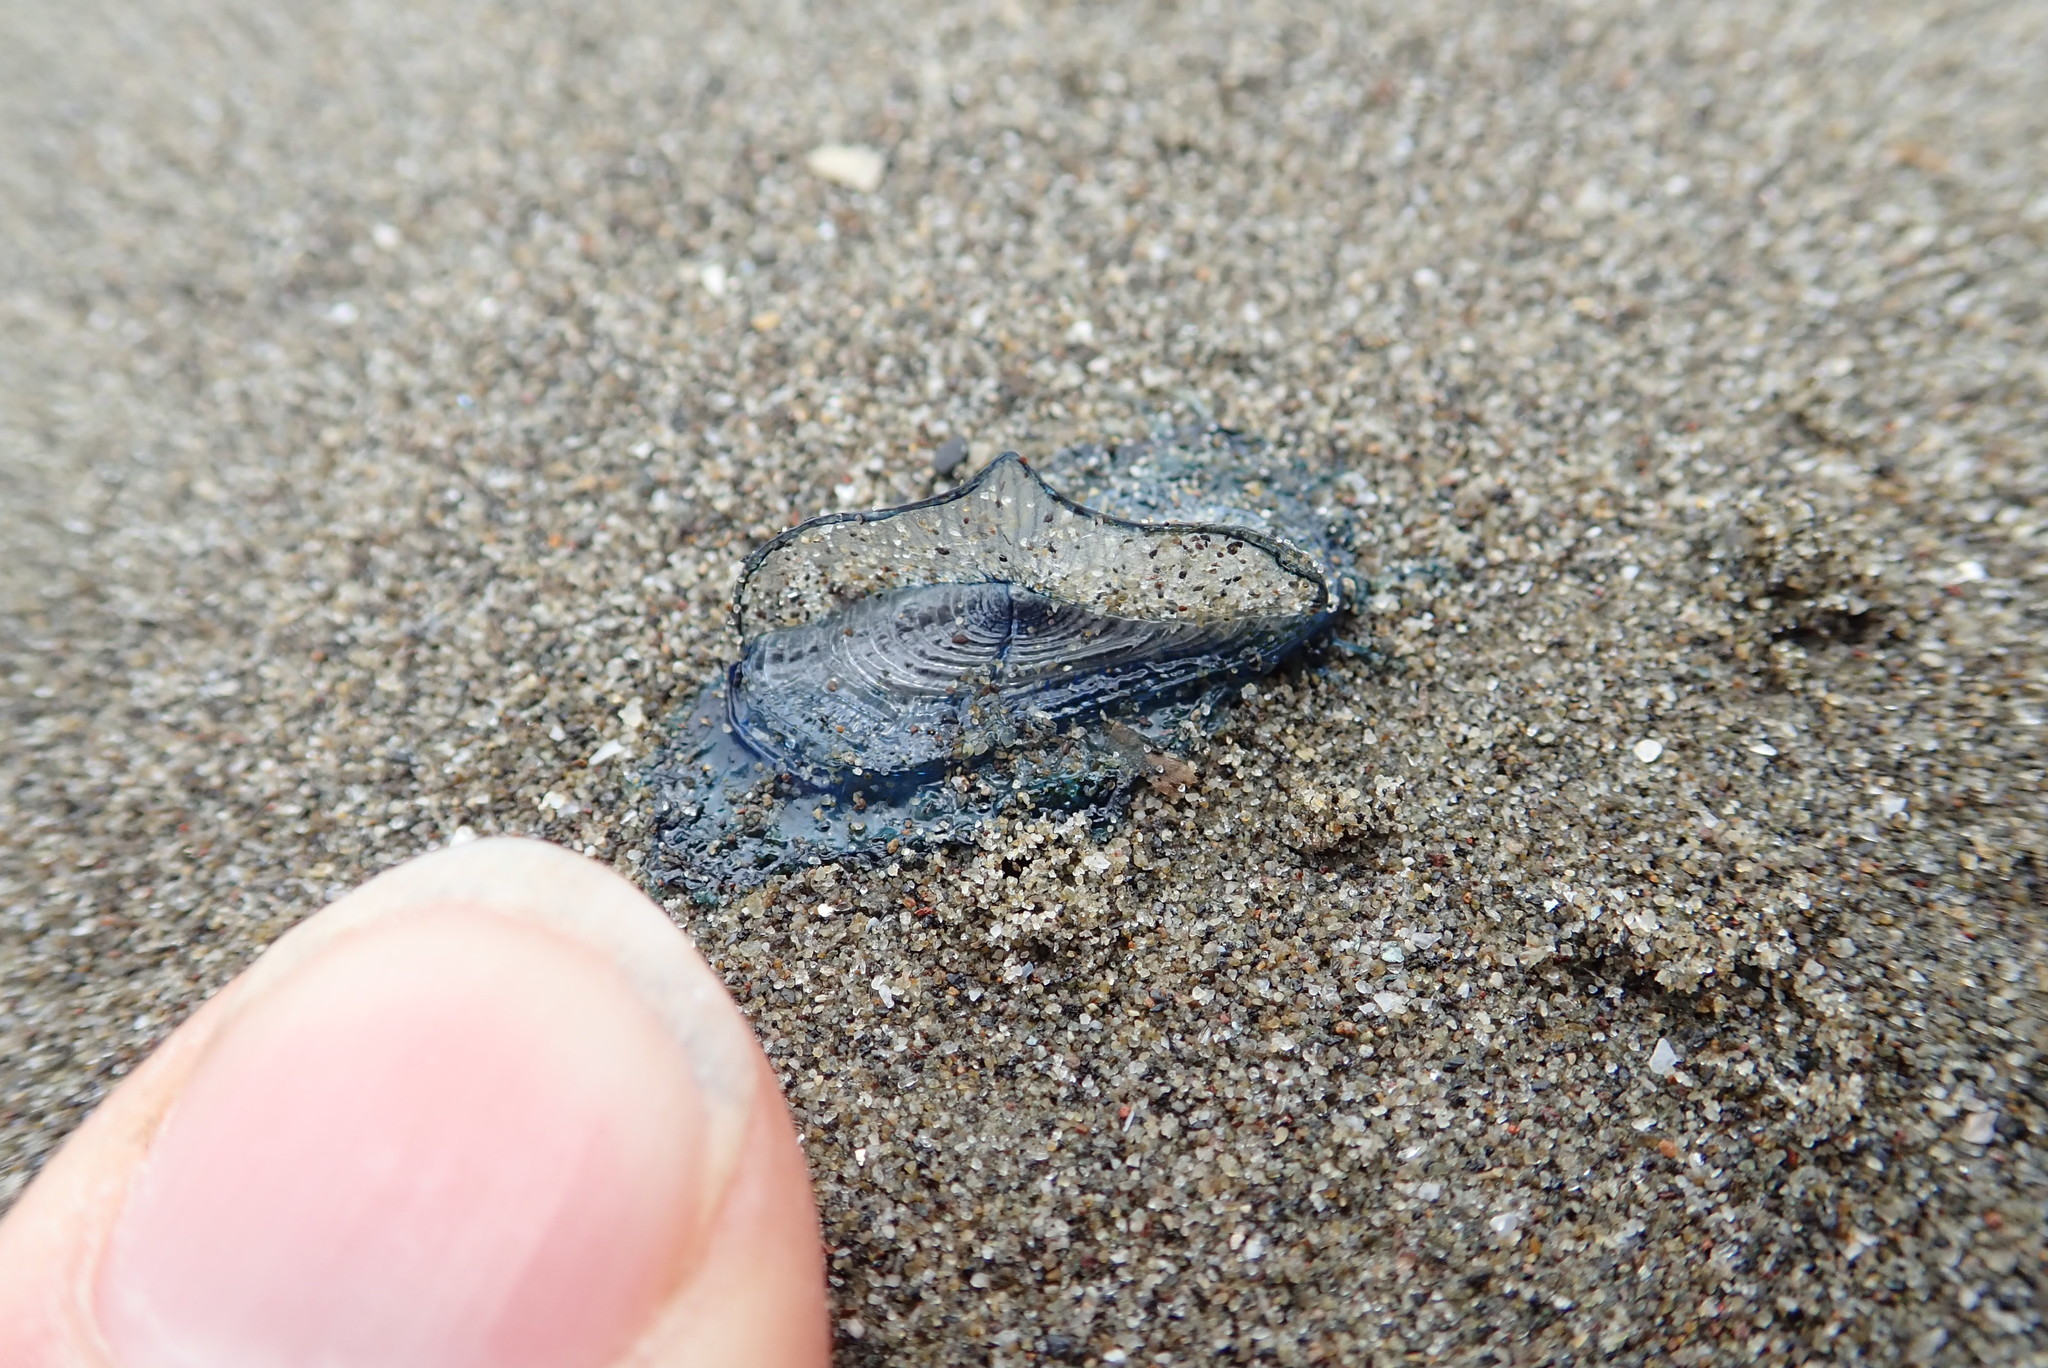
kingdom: Animalia
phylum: Cnidaria
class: Hydrozoa
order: Anthoathecata
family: Porpitidae
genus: Velella
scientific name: Velella velella
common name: By-the-wind-sailor
